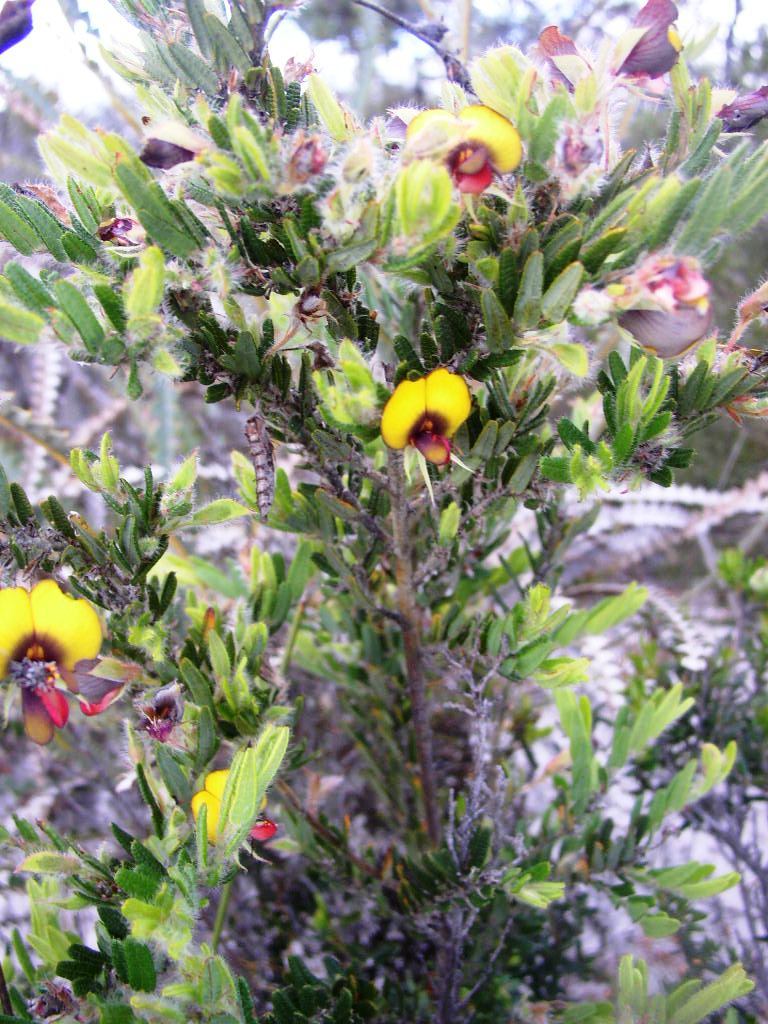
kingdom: Plantae
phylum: Tracheophyta
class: Magnoliopsida
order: Fabales
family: Fabaceae
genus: Bossiaea
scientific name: Bossiaea eriocarpa
